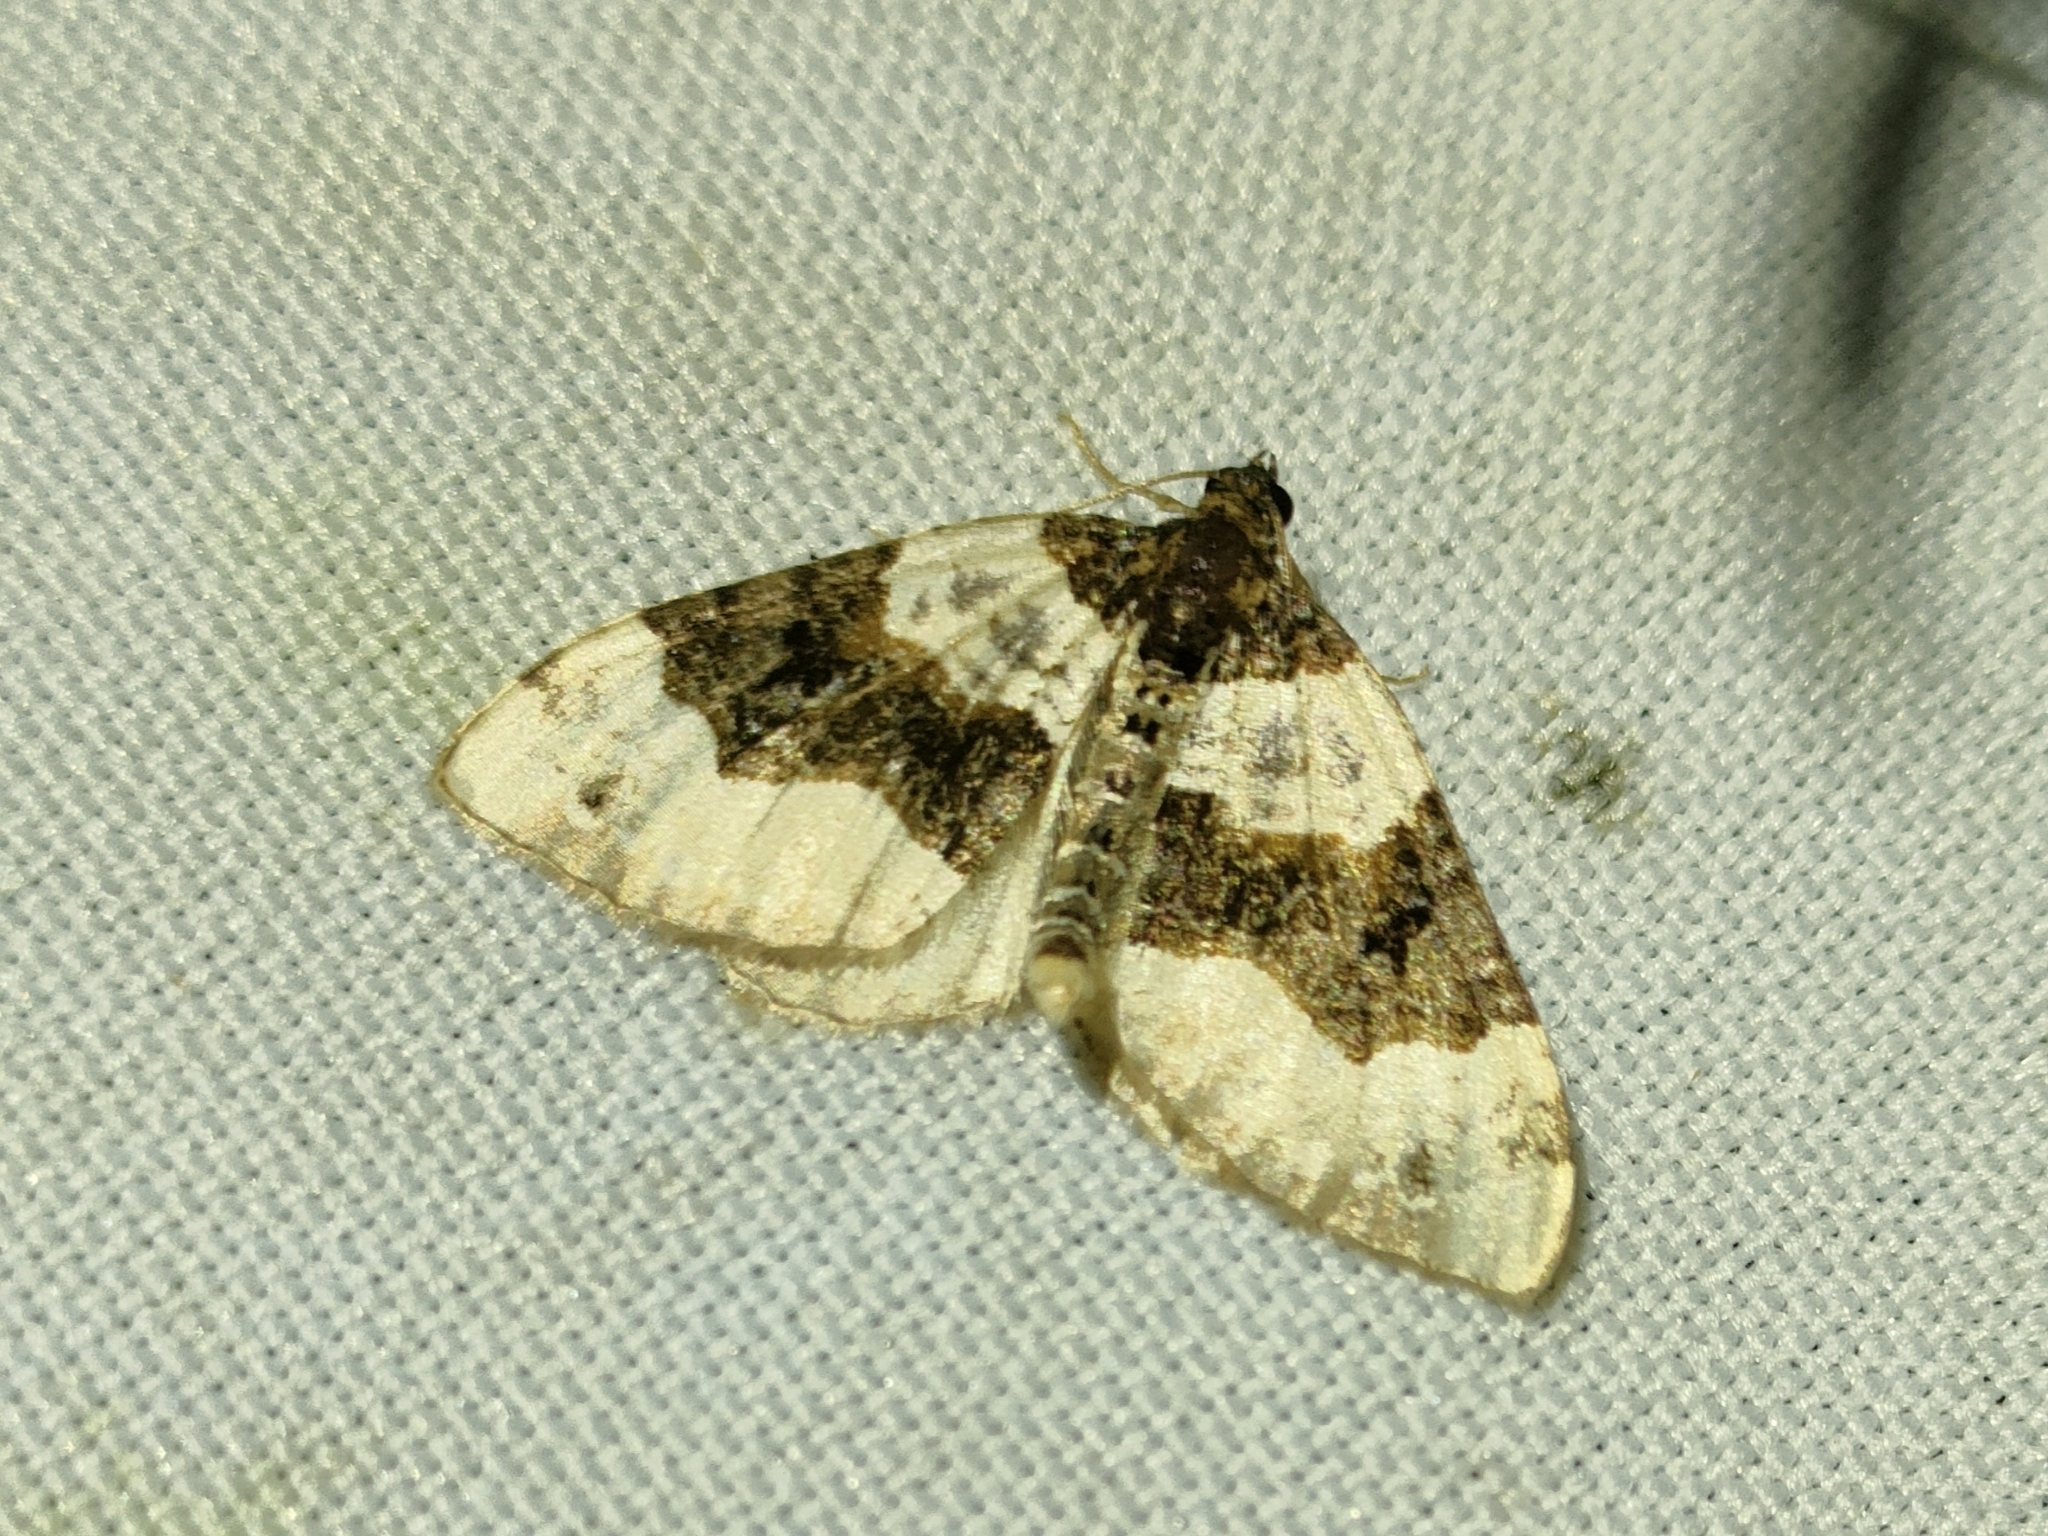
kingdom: Animalia
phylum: Arthropoda
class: Insecta
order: Lepidoptera
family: Geometridae
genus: Cosmorhoe
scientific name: Cosmorhoe ocellata
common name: Purple bar
